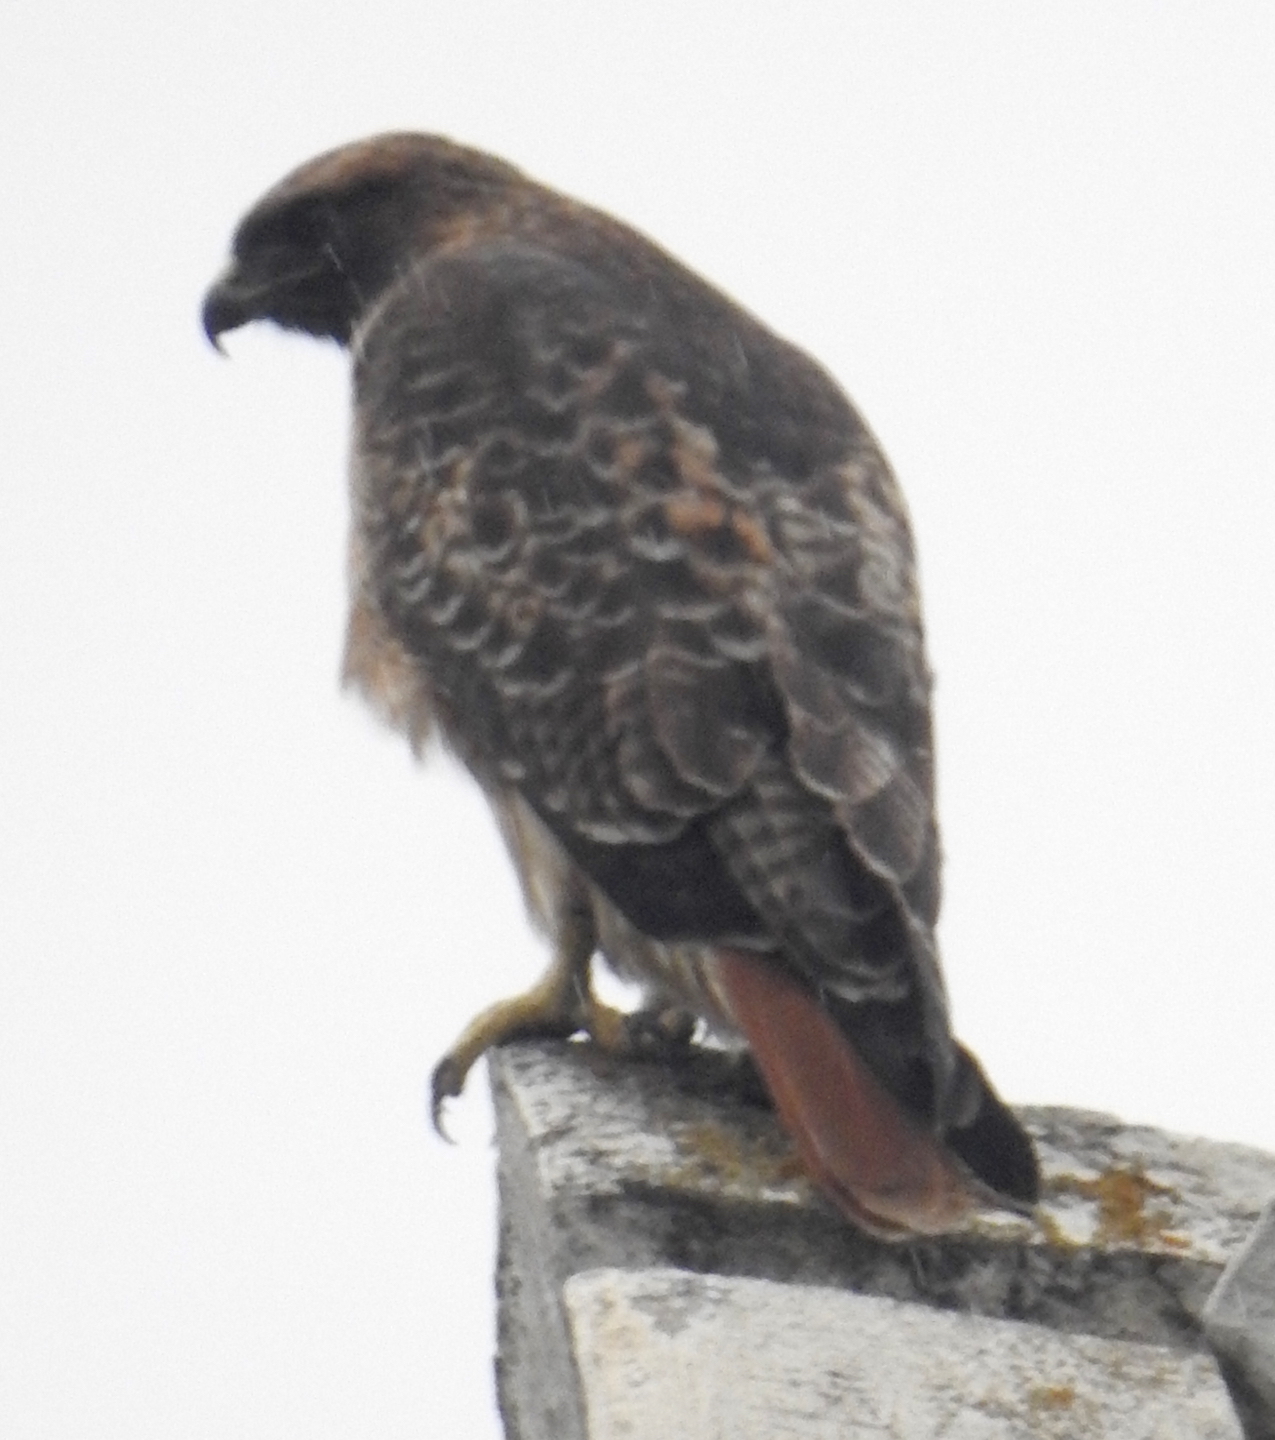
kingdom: Animalia
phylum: Chordata
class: Aves
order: Accipitriformes
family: Accipitridae
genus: Buteo
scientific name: Buteo jamaicensis
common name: Red-tailed hawk
